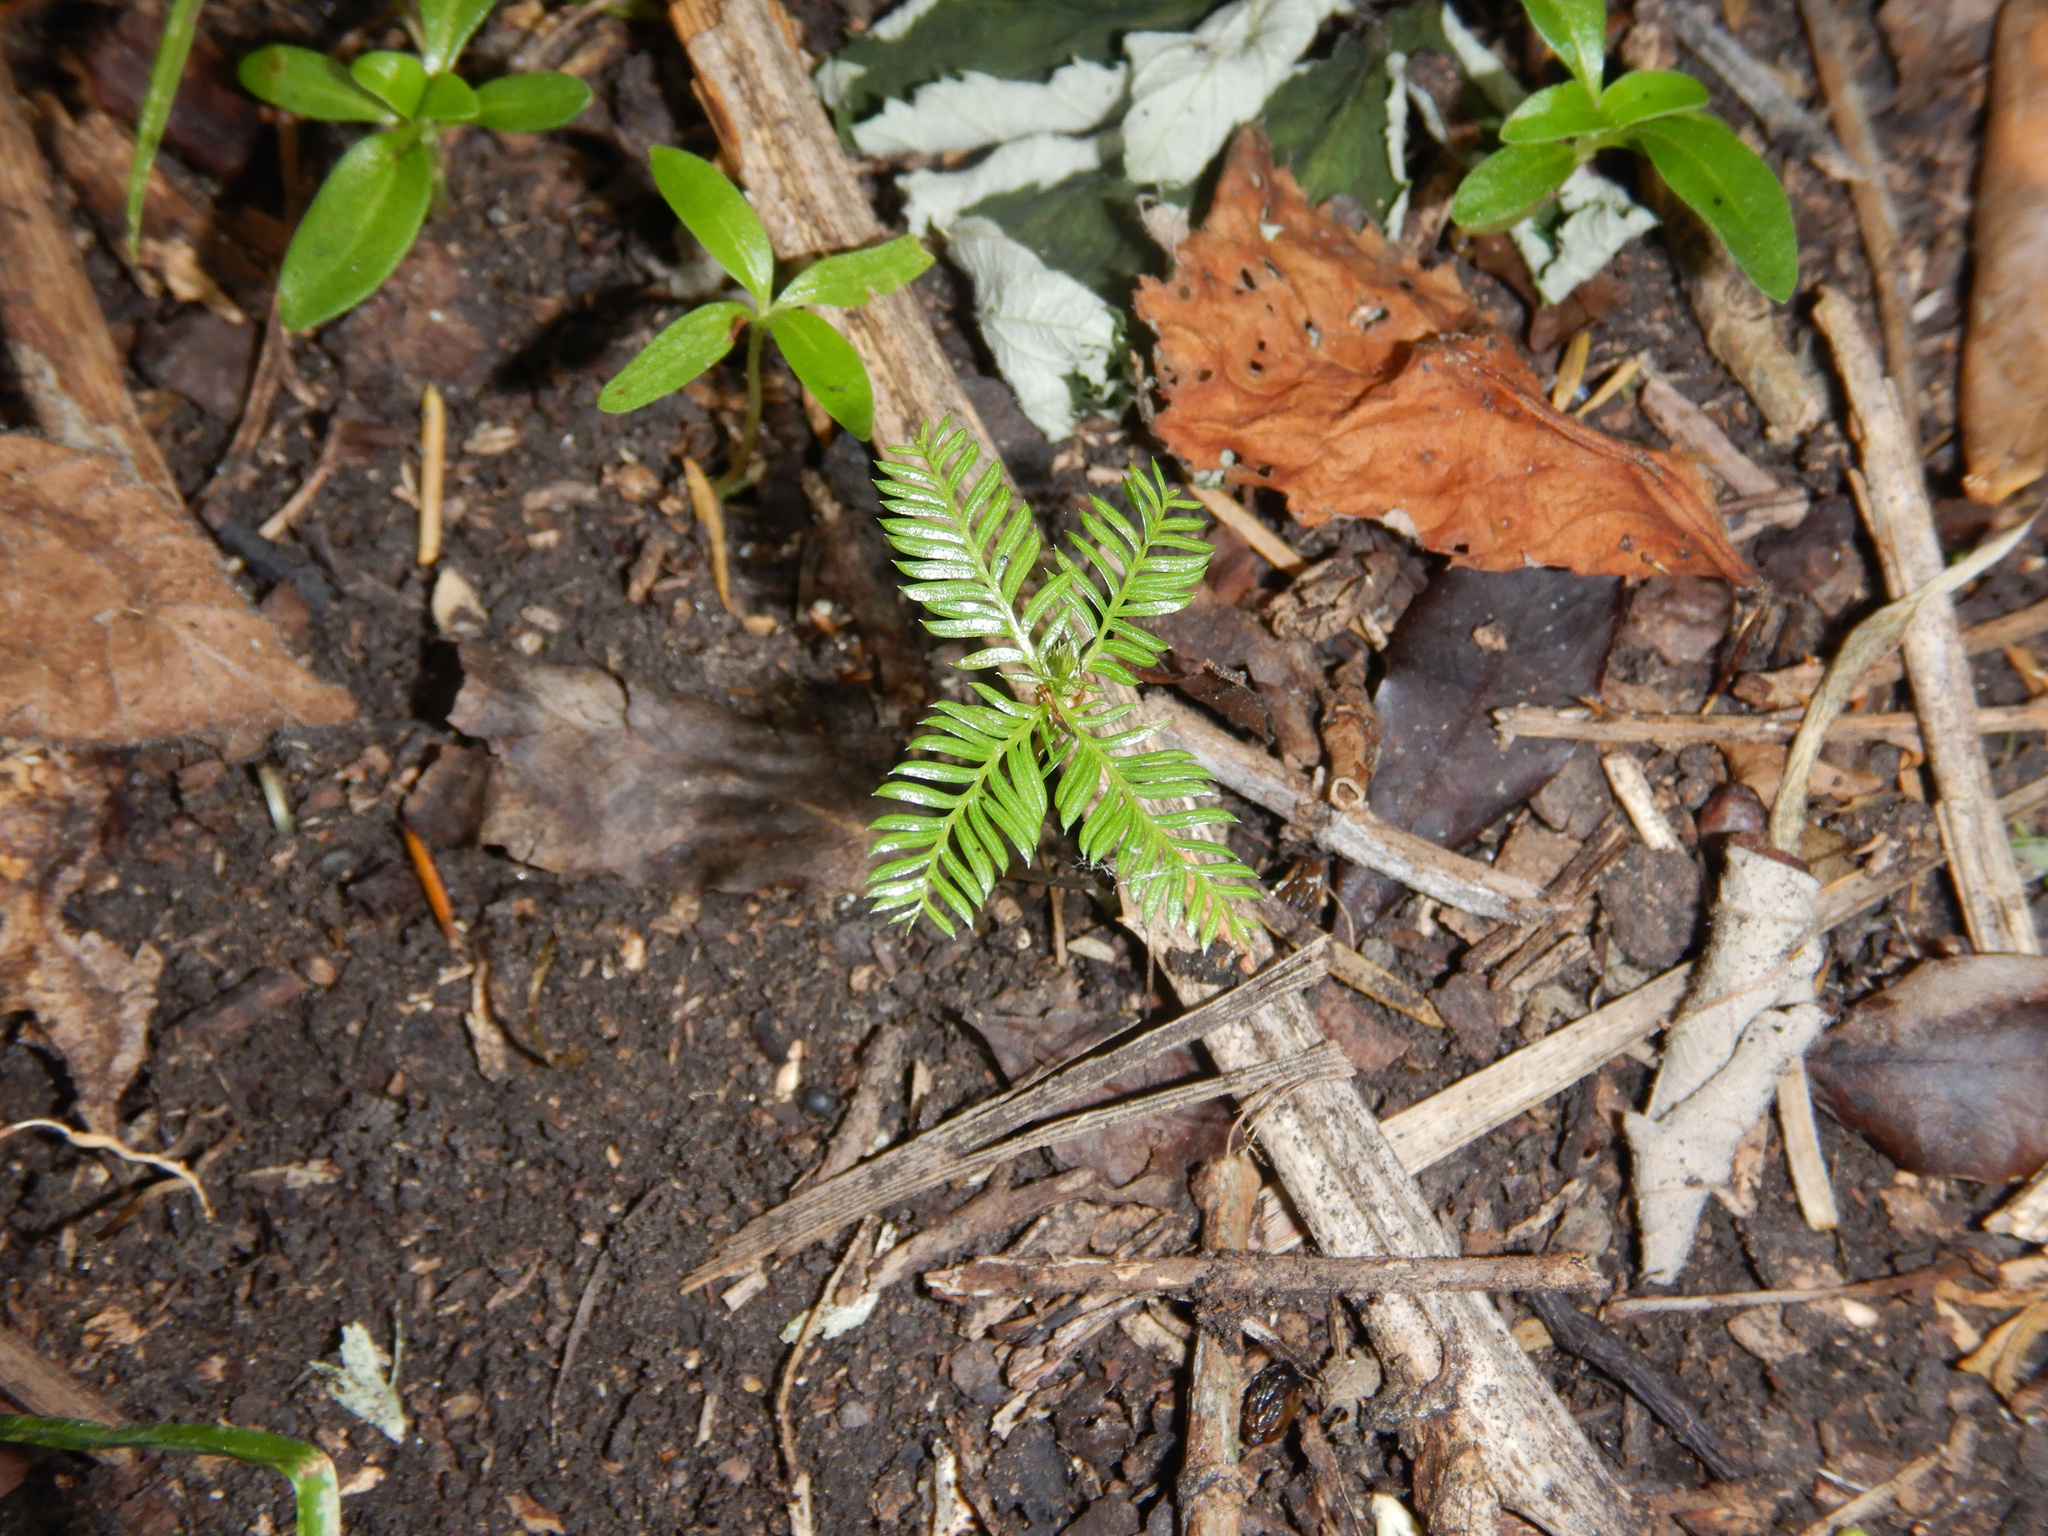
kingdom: Plantae
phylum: Tracheophyta
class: Pinopsida
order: Pinales
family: Podocarpaceae
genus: Dacrycarpus
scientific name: Dacrycarpus dacrydioides
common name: White pine
